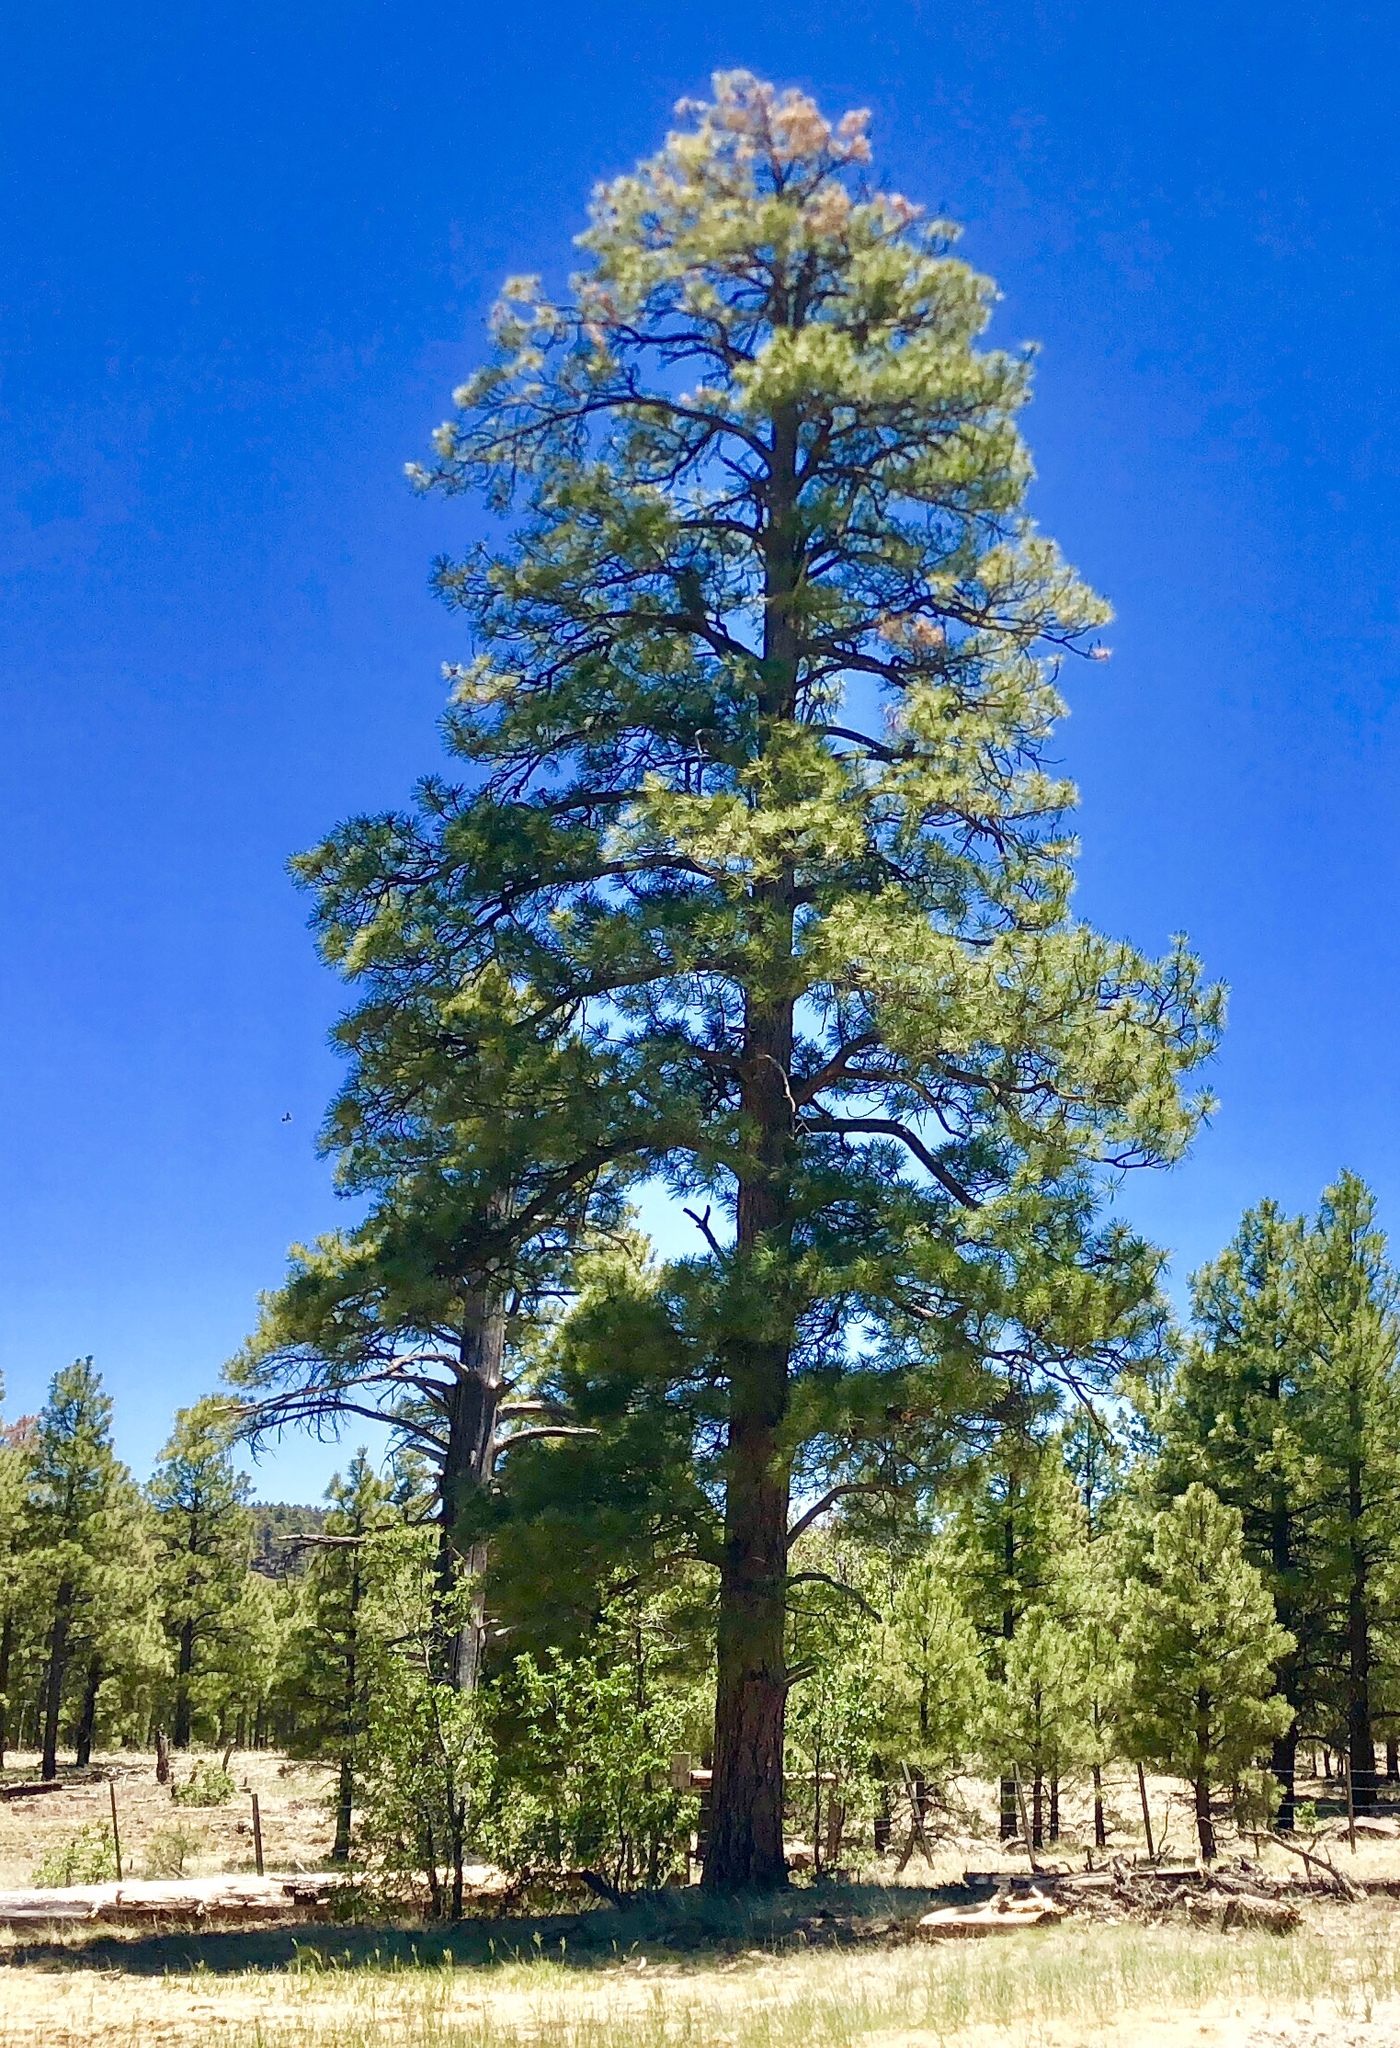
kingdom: Plantae
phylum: Tracheophyta
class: Pinopsida
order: Pinales
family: Pinaceae
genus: Pinus
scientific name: Pinus ponderosa
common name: Western yellow-pine
